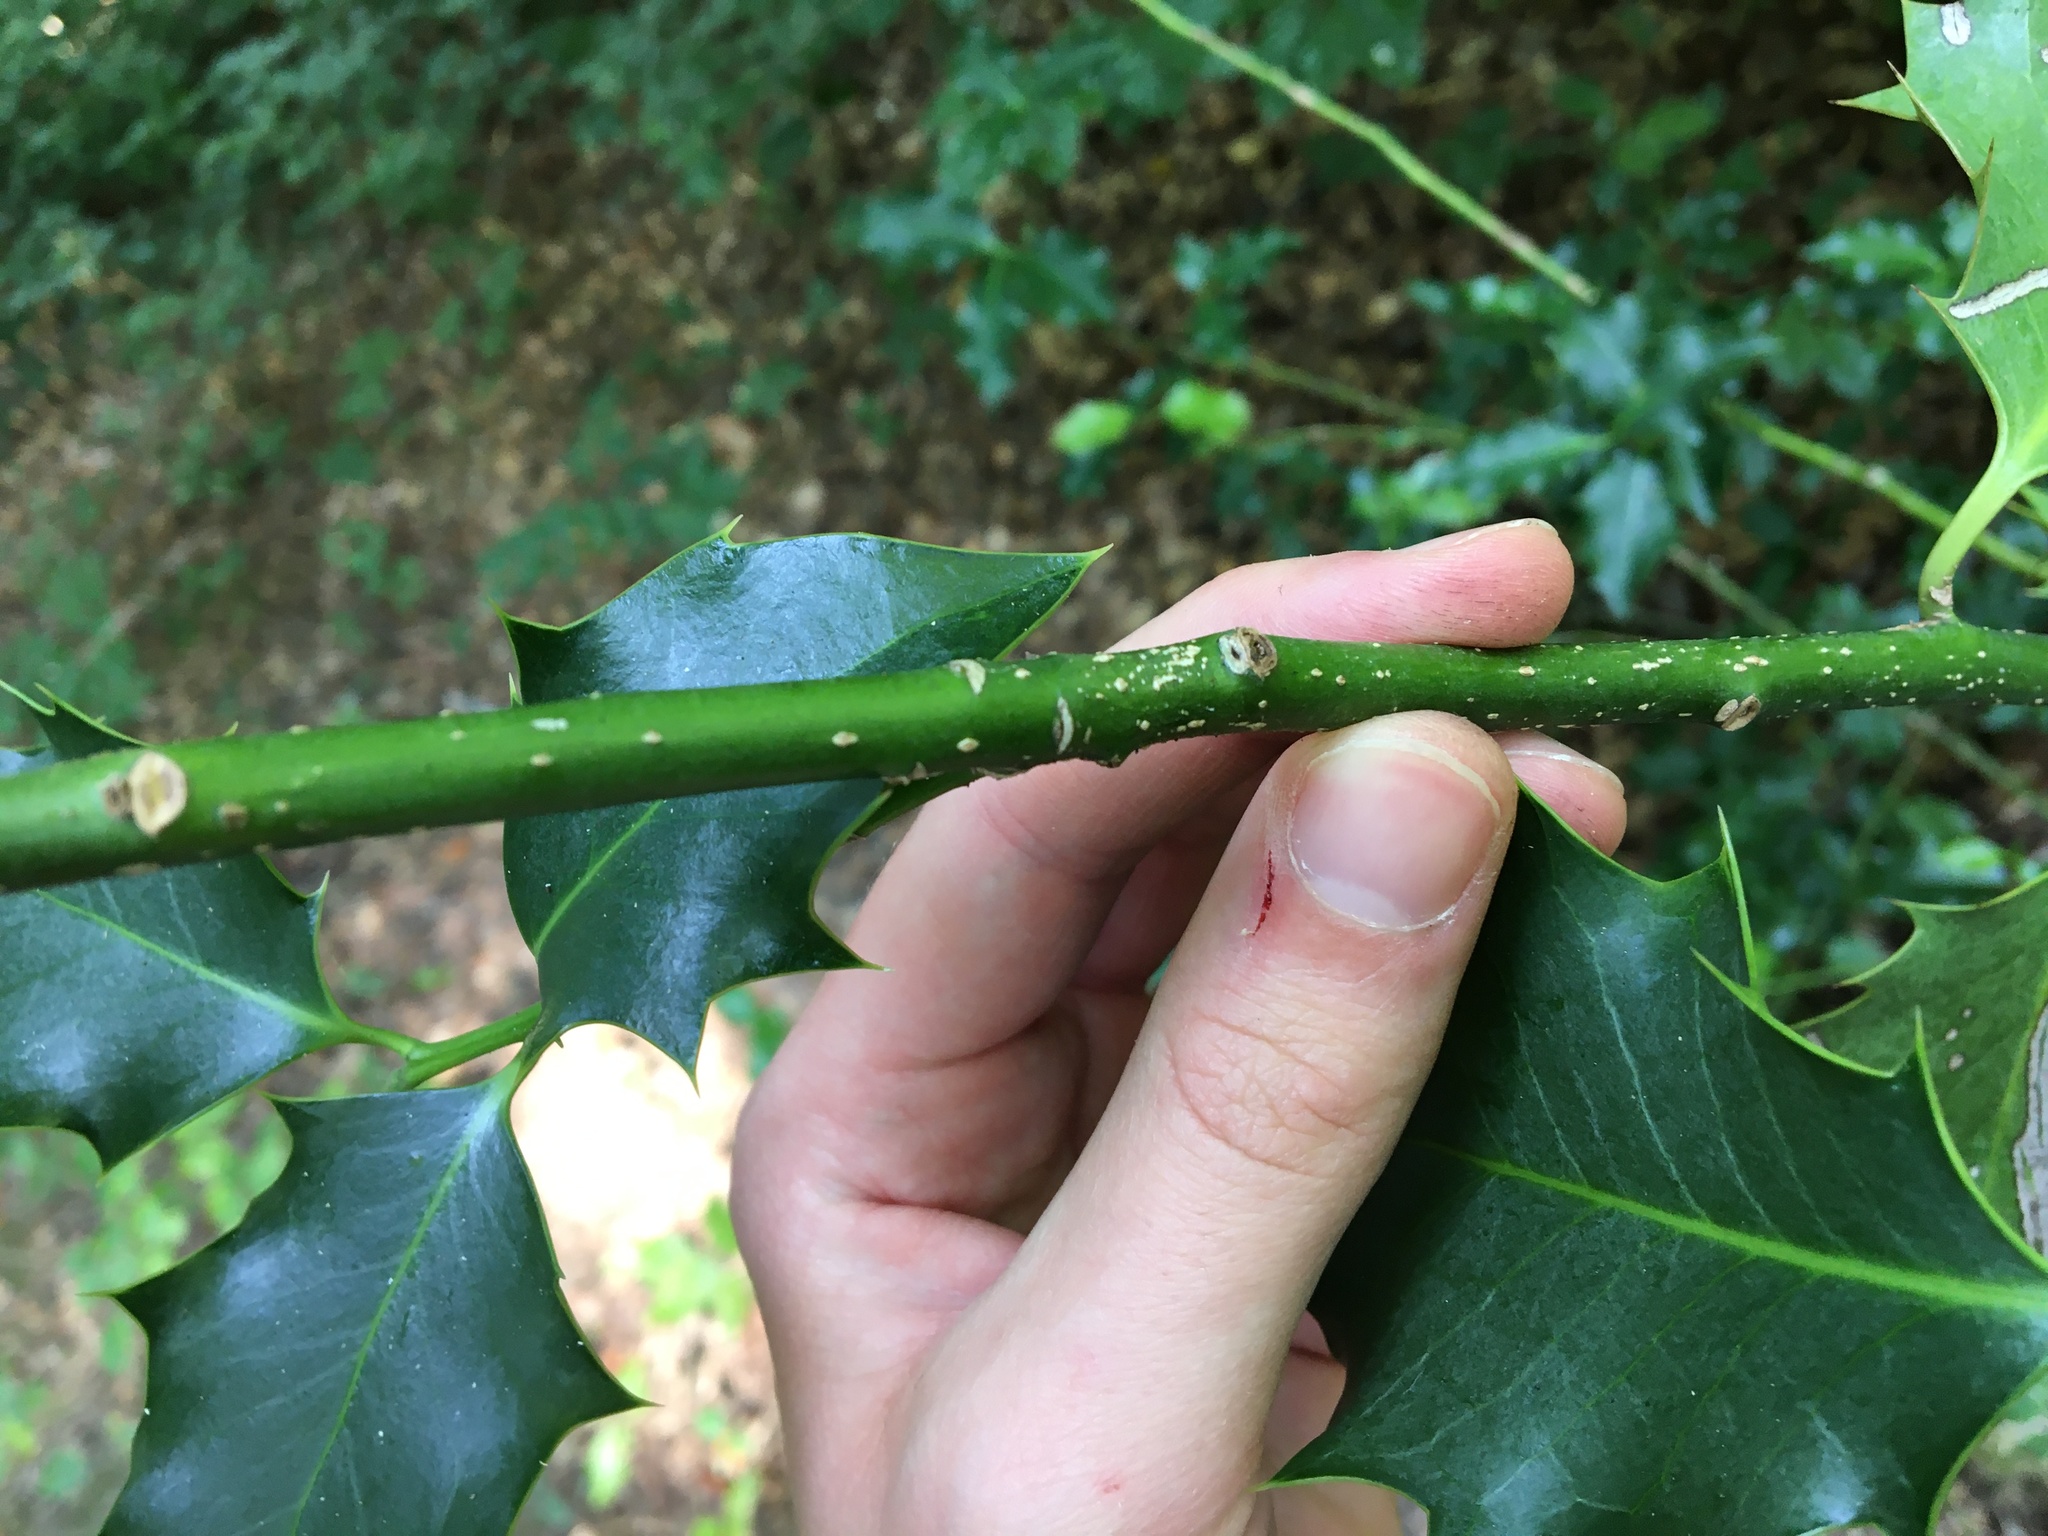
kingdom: Plantae
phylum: Tracheophyta
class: Magnoliopsida
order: Aquifoliales
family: Aquifoliaceae
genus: Ilex
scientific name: Ilex aquifolium
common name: English holly
